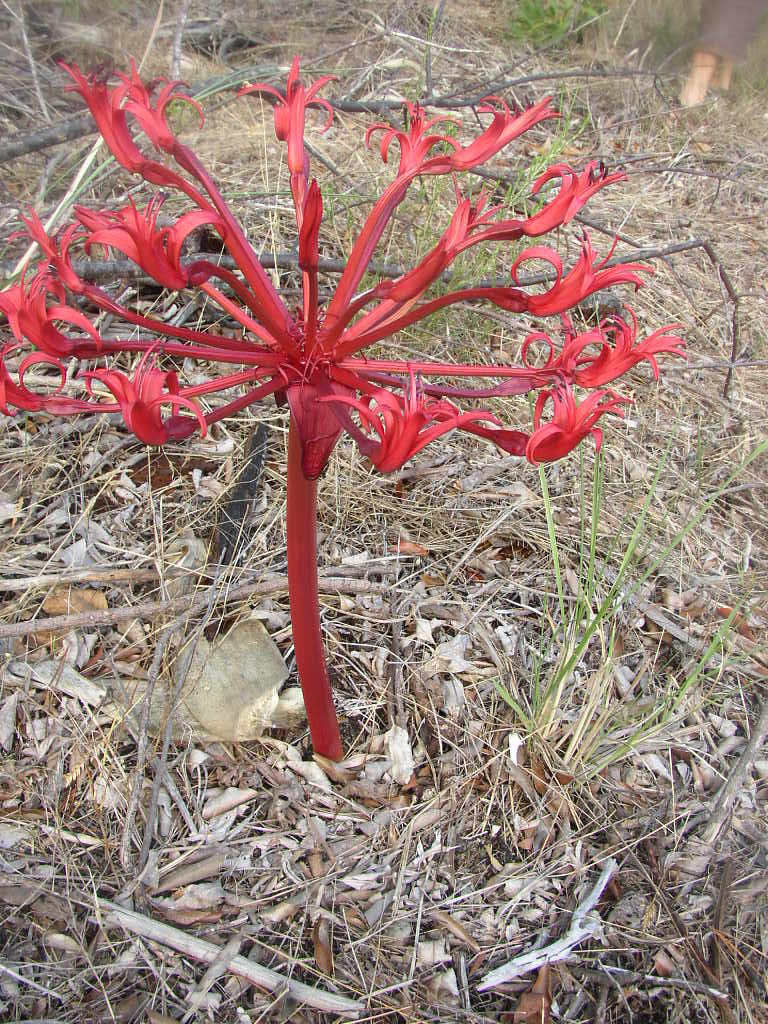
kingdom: Plantae
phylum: Tracheophyta
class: Liliopsida
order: Asparagales
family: Amaryllidaceae
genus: Brunsvigia
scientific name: Brunsvigia orientalis
